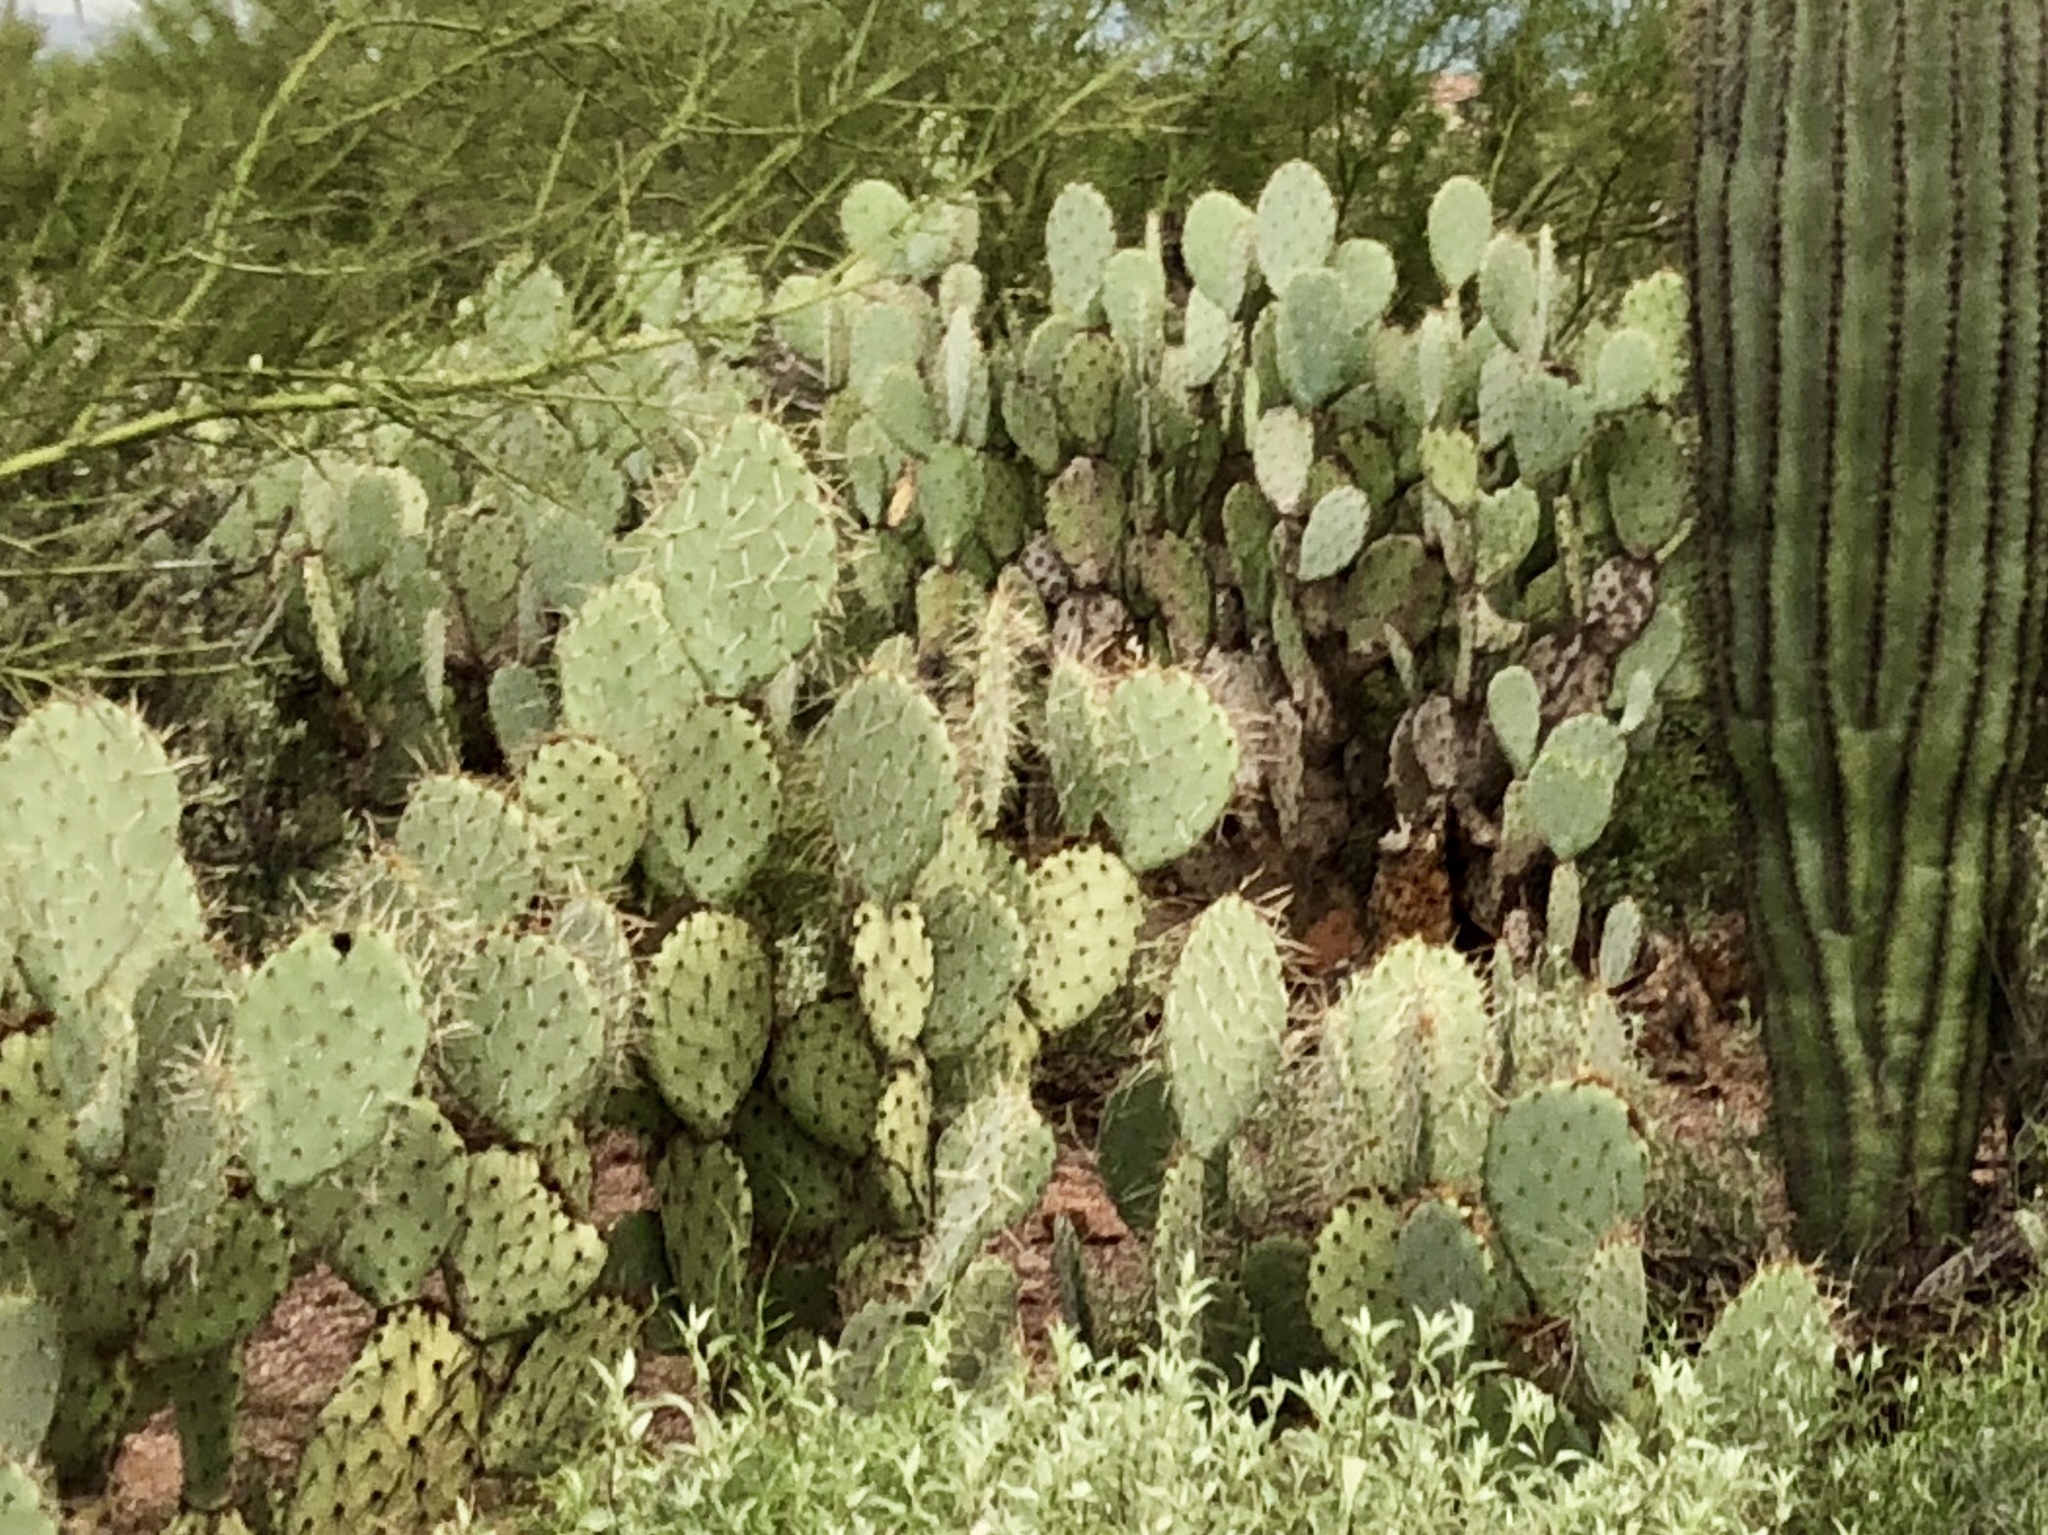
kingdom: Plantae
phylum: Tracheophyta
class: Magnoliopsida
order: Caryophyllales
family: Cactaceae
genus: Opuntia
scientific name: Opuntia engelmannii
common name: Cactus-apple
